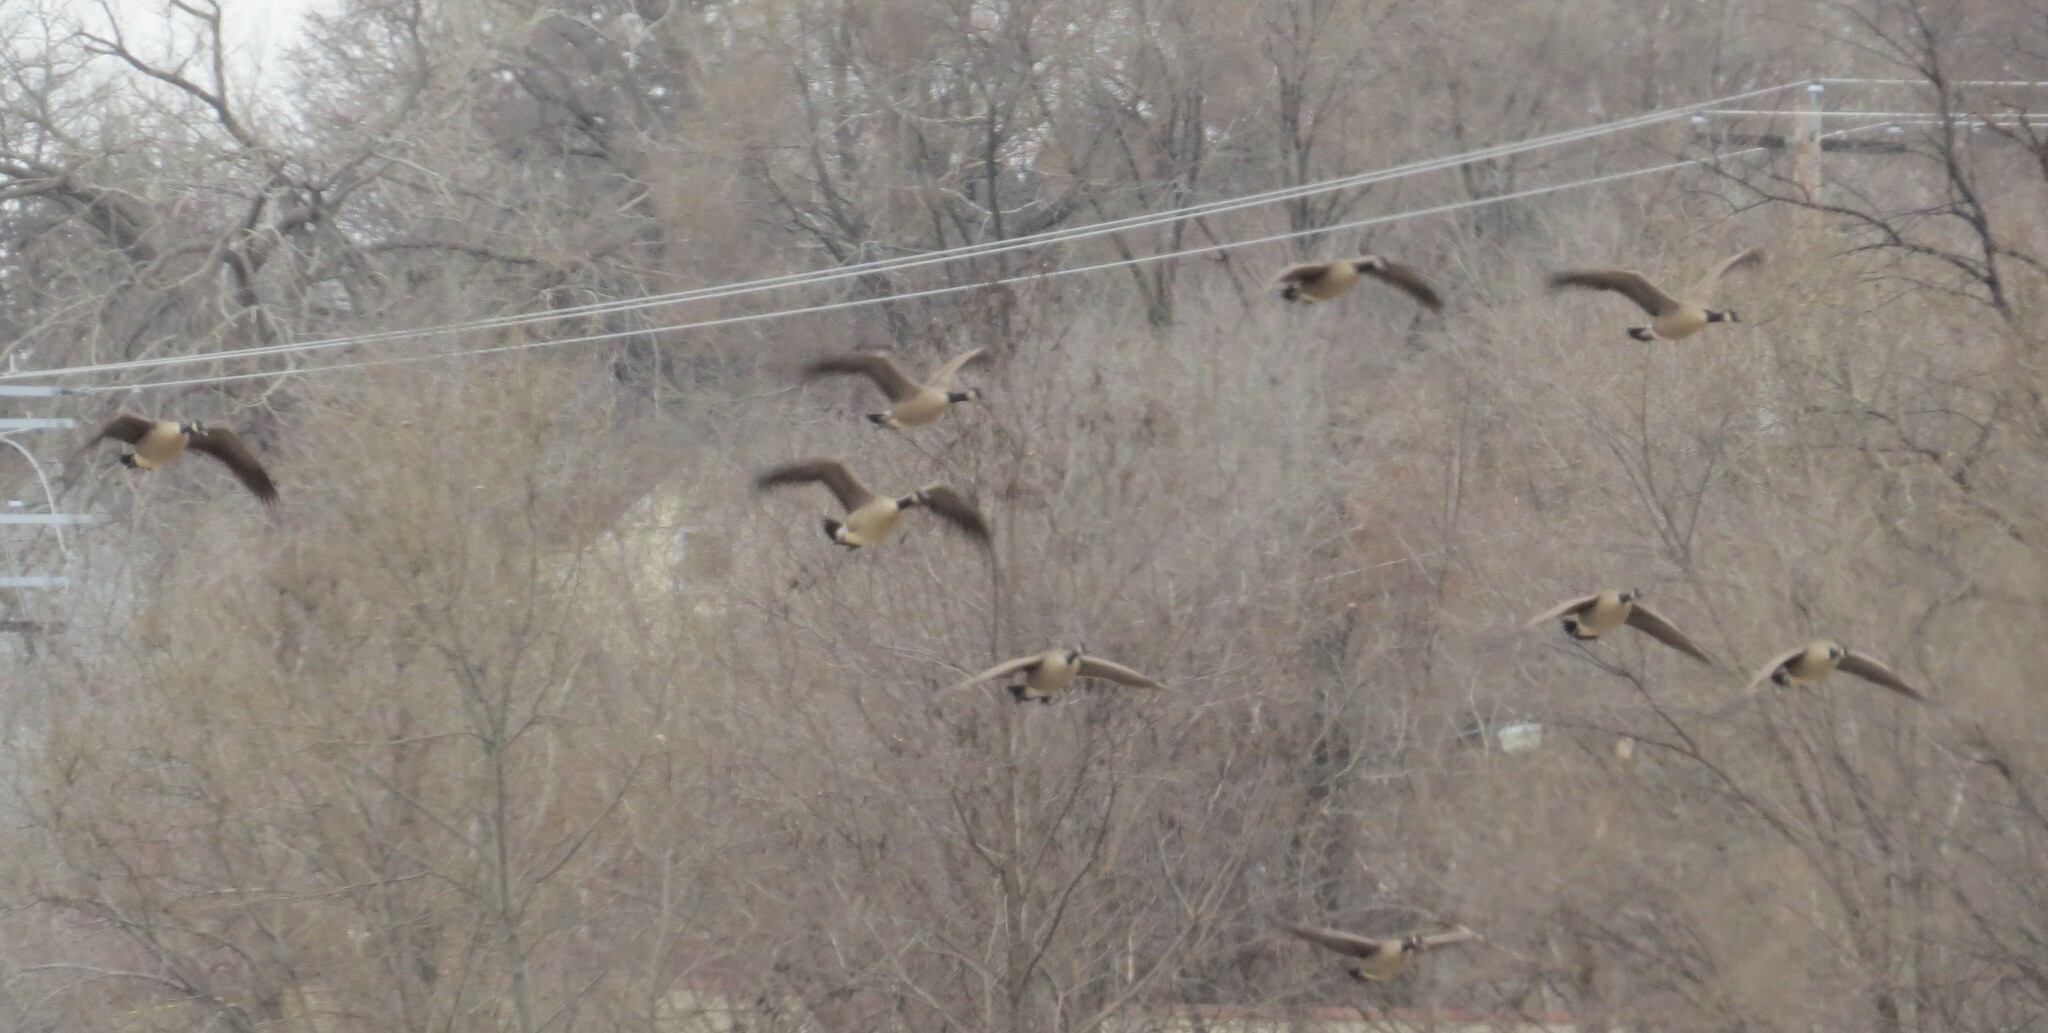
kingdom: Animalia
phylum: Chordata
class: Aves
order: Anseriformes
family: Anatidae
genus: Branta
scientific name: Branta canadensis
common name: Canada goose
